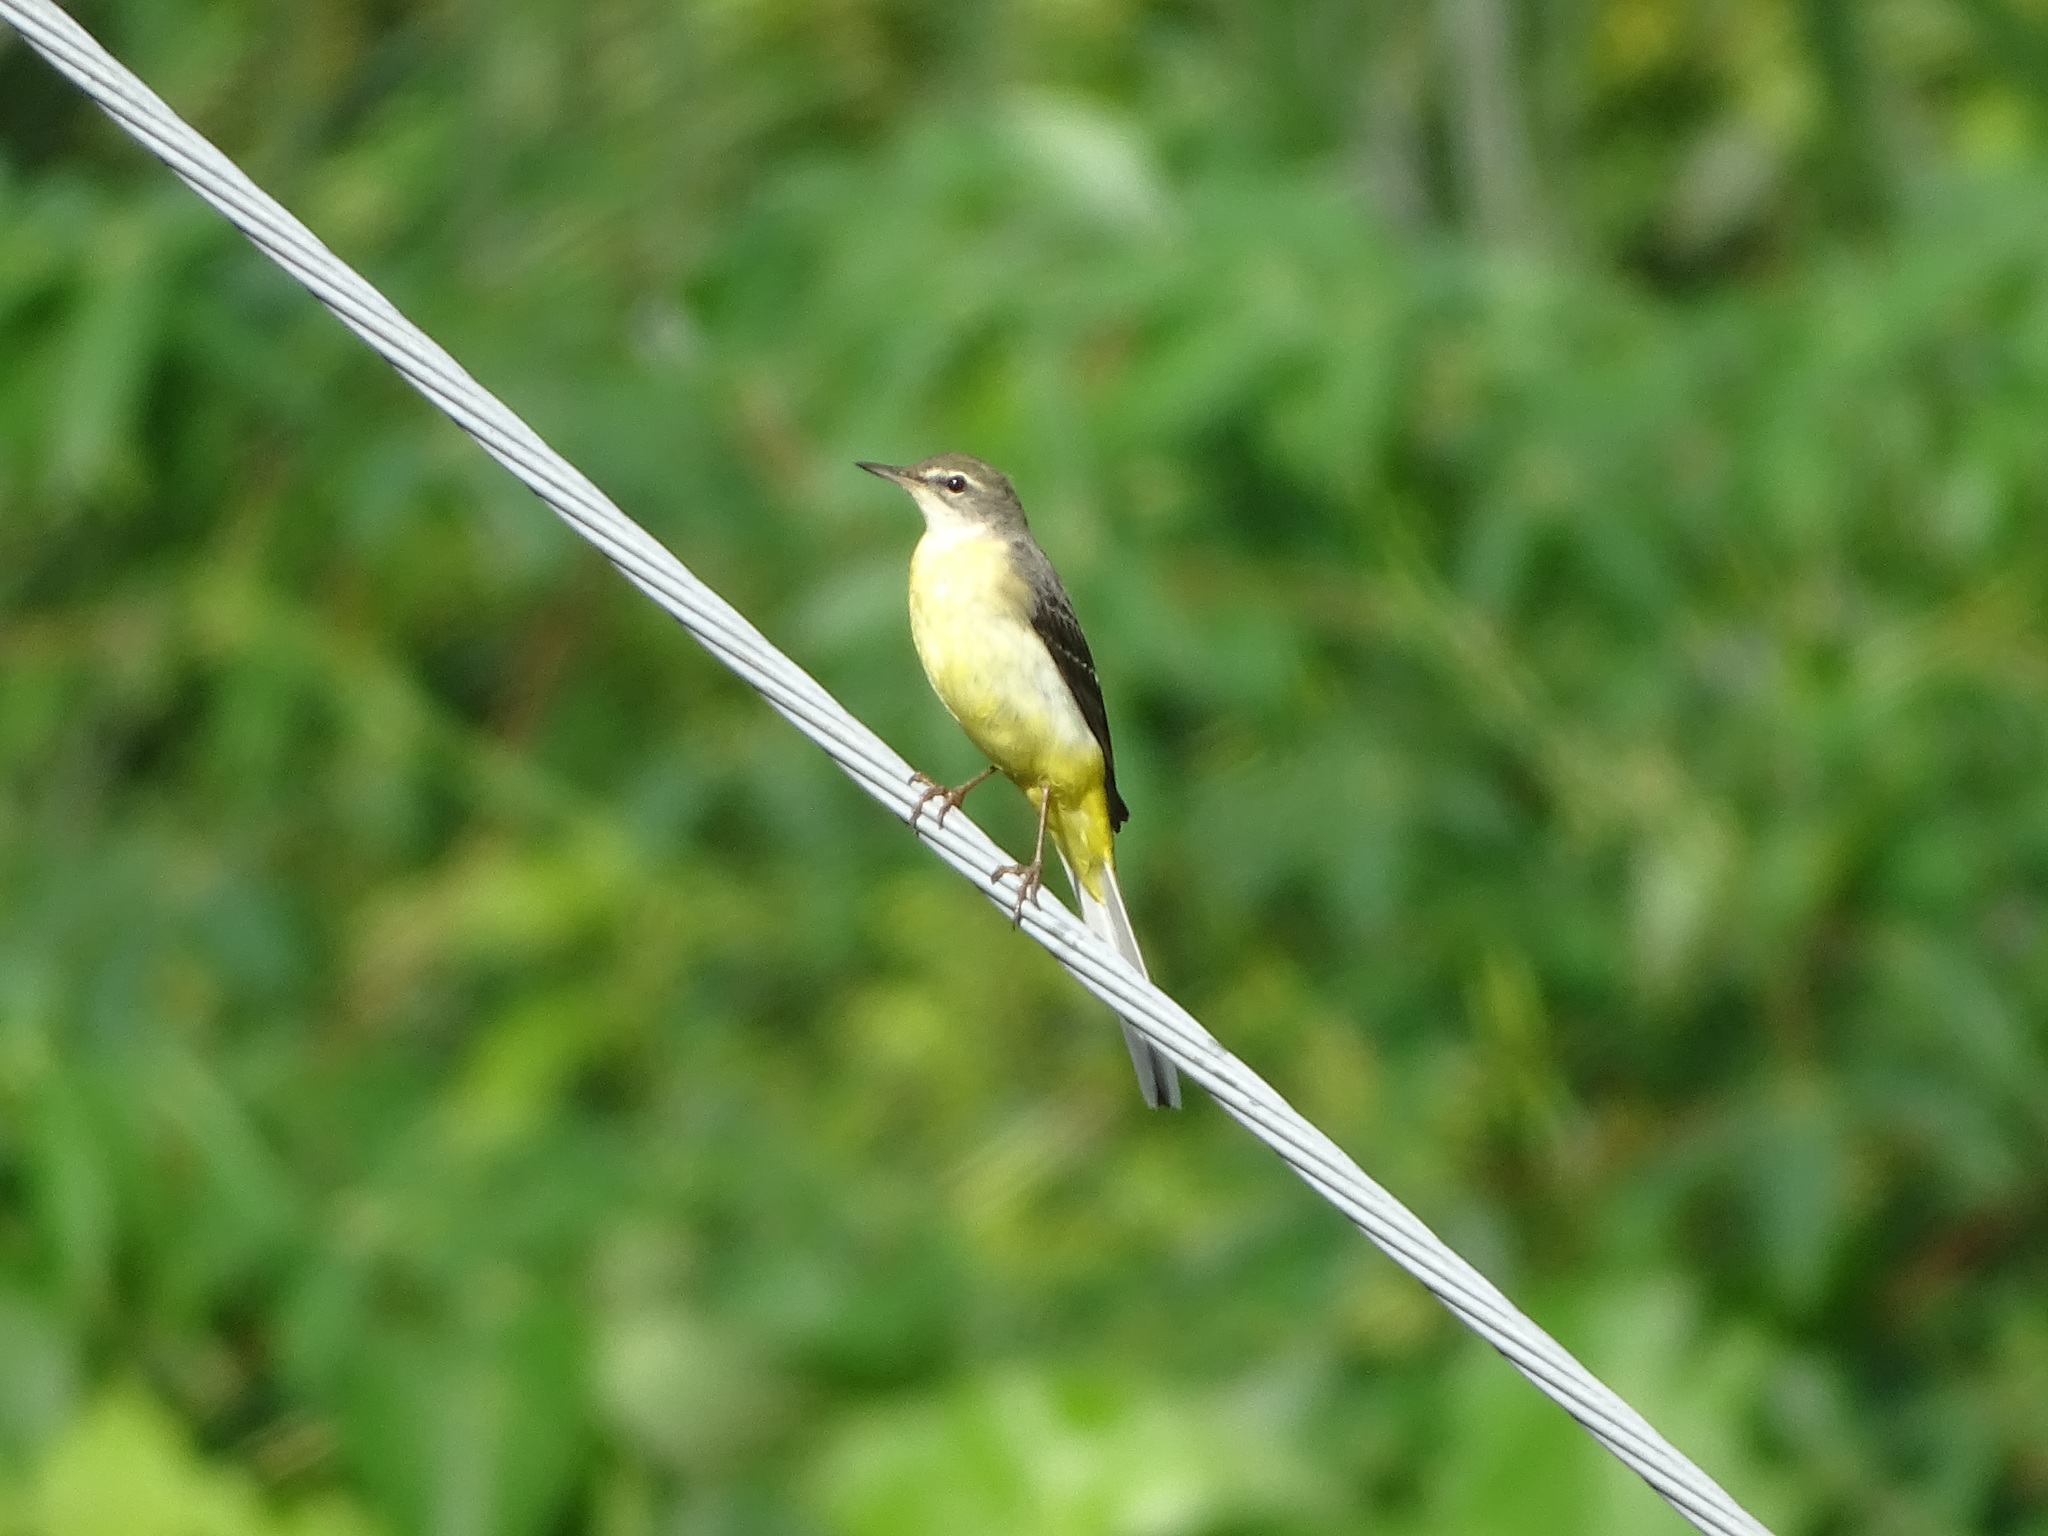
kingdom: Animalia
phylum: Chordata
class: Aves
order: Passeriformes
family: Motacillidae
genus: Motacilla
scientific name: Motacilla cinerea
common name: Grey wagtail
